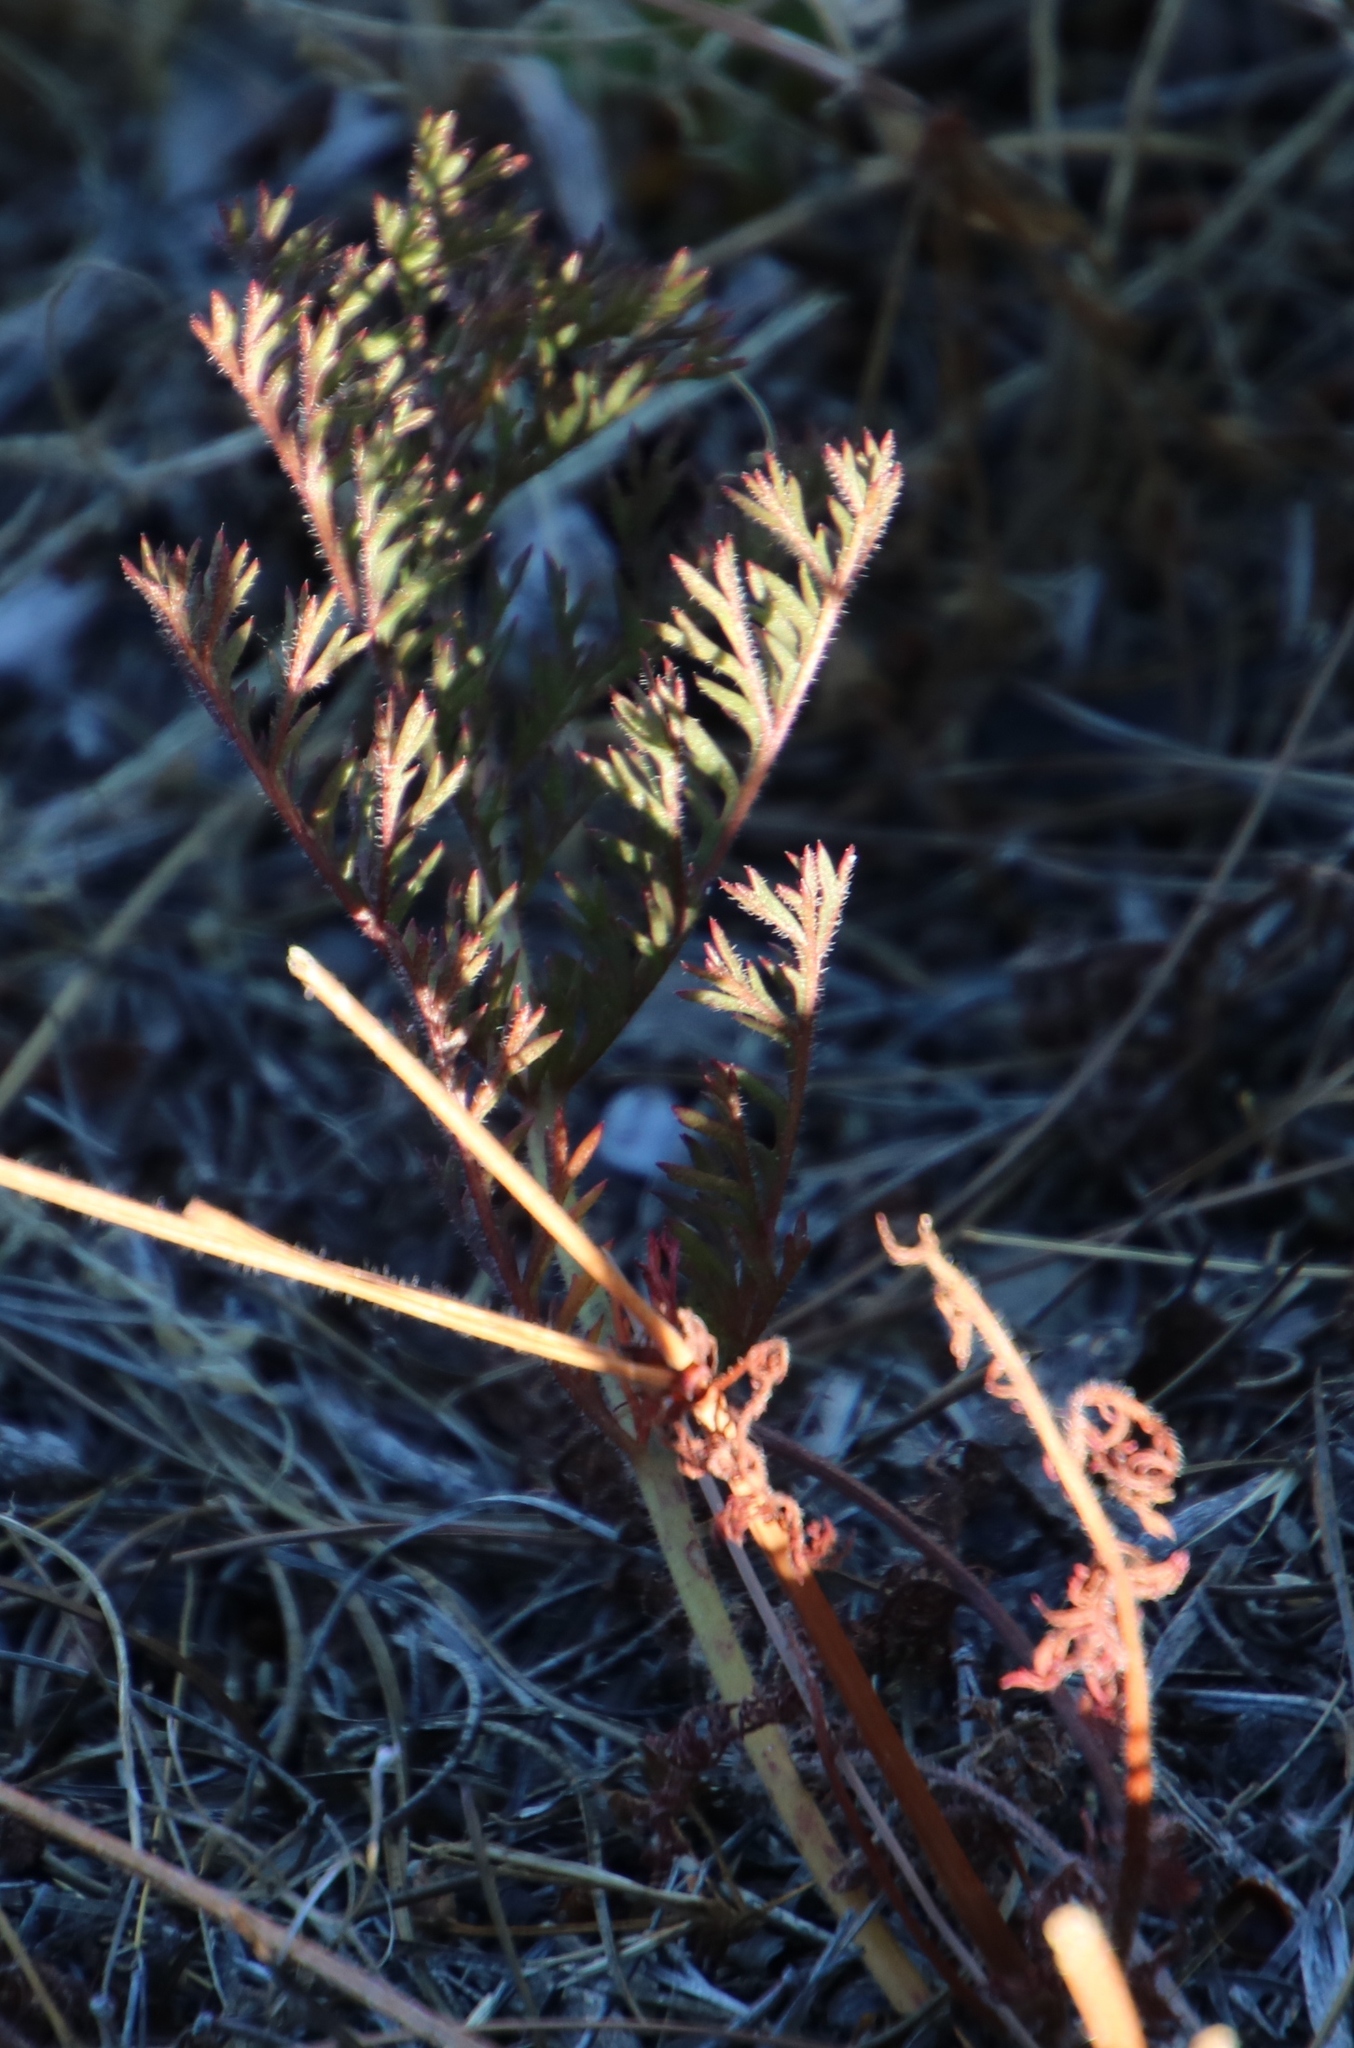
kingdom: Plantae
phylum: Tracheophyta
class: Magnoliopsida
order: Geraniales
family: Geraniaceae
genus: Pelargonium
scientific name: Pelargonium triste
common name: Night-scent pelargonium
